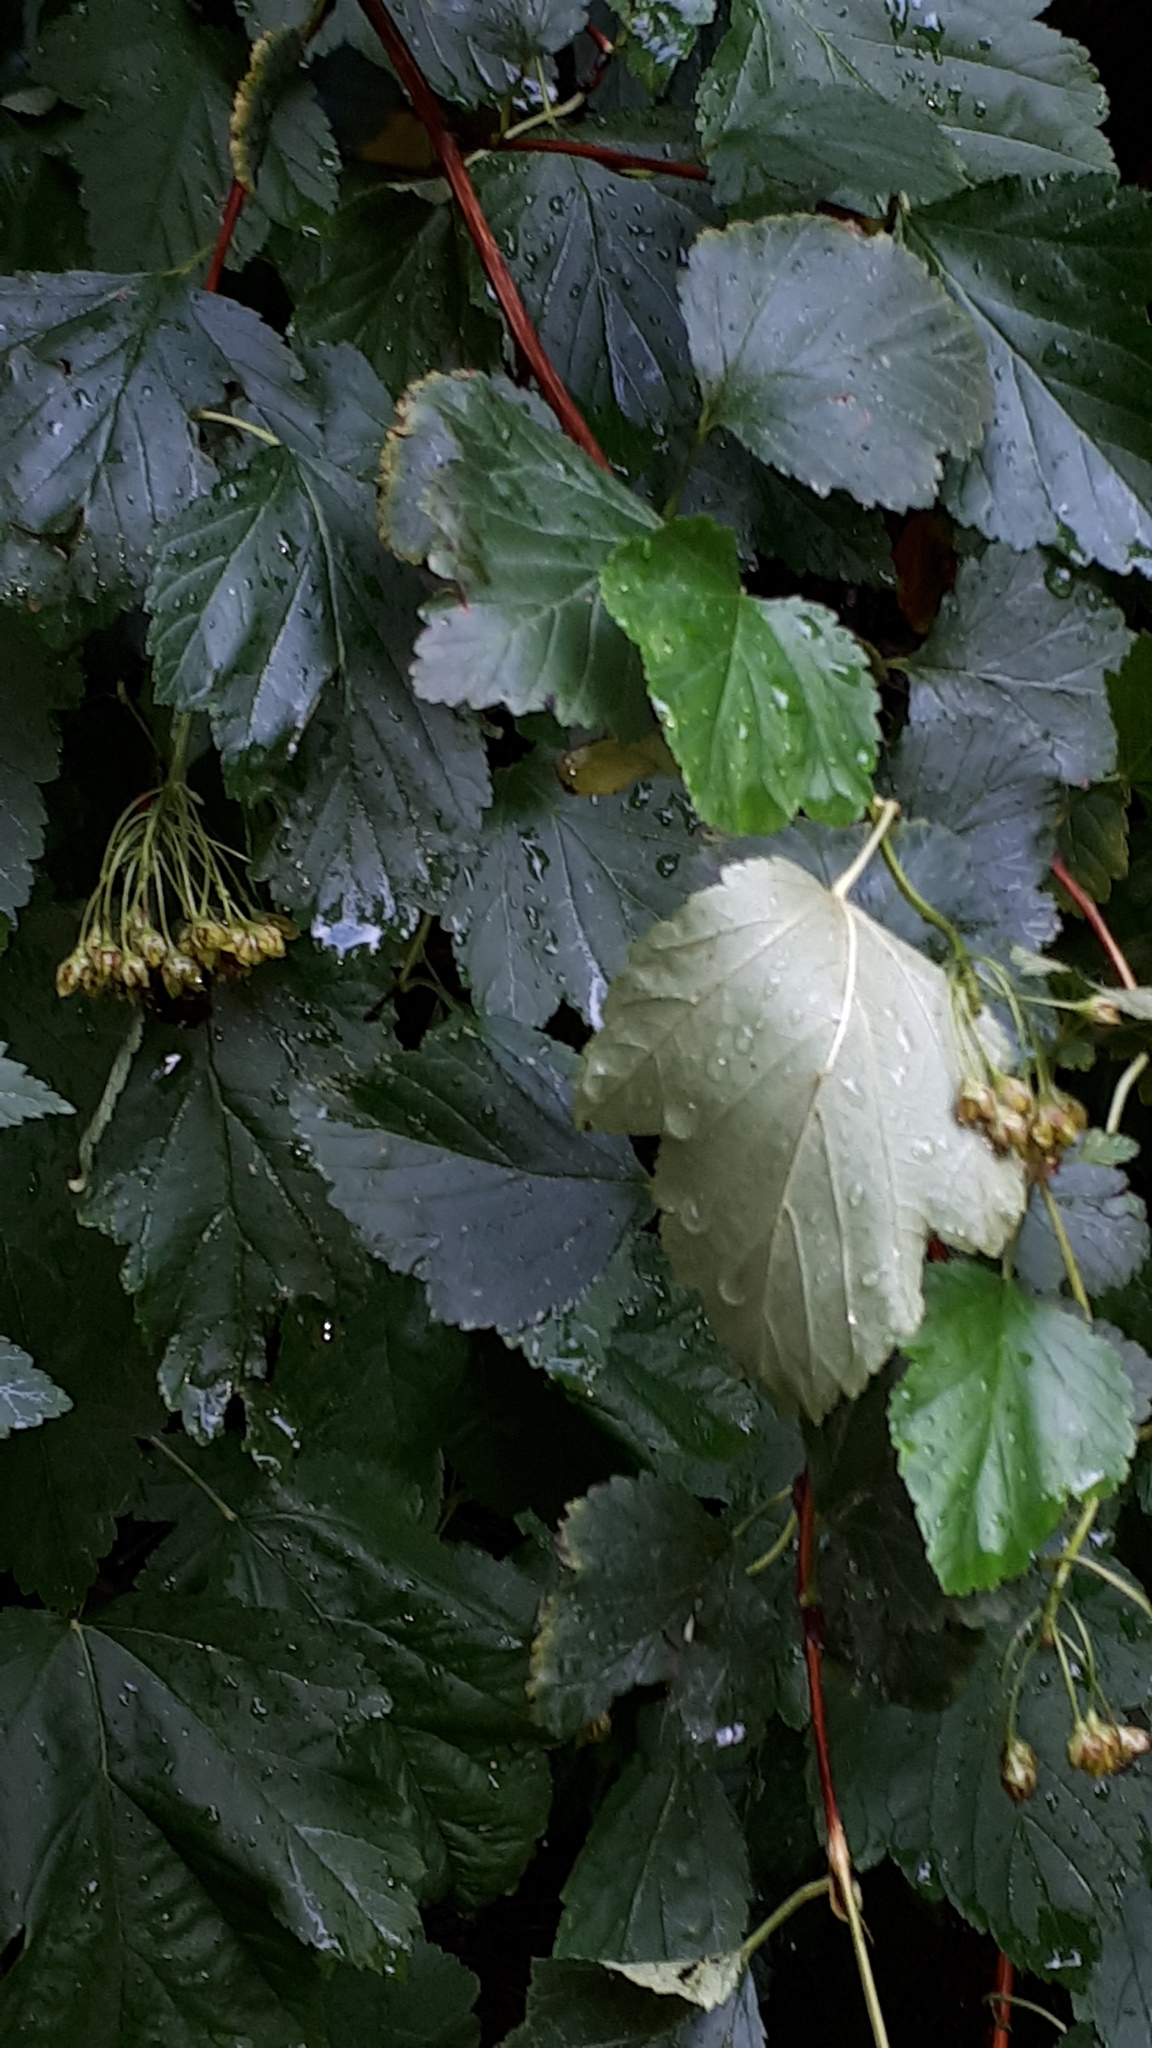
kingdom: Plantae
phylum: Tracheophyta
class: Magnoliopsida
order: Rosales
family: Rosaceae
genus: Physocarpus
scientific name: Physocarpus opulifolius
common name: Ninebark
